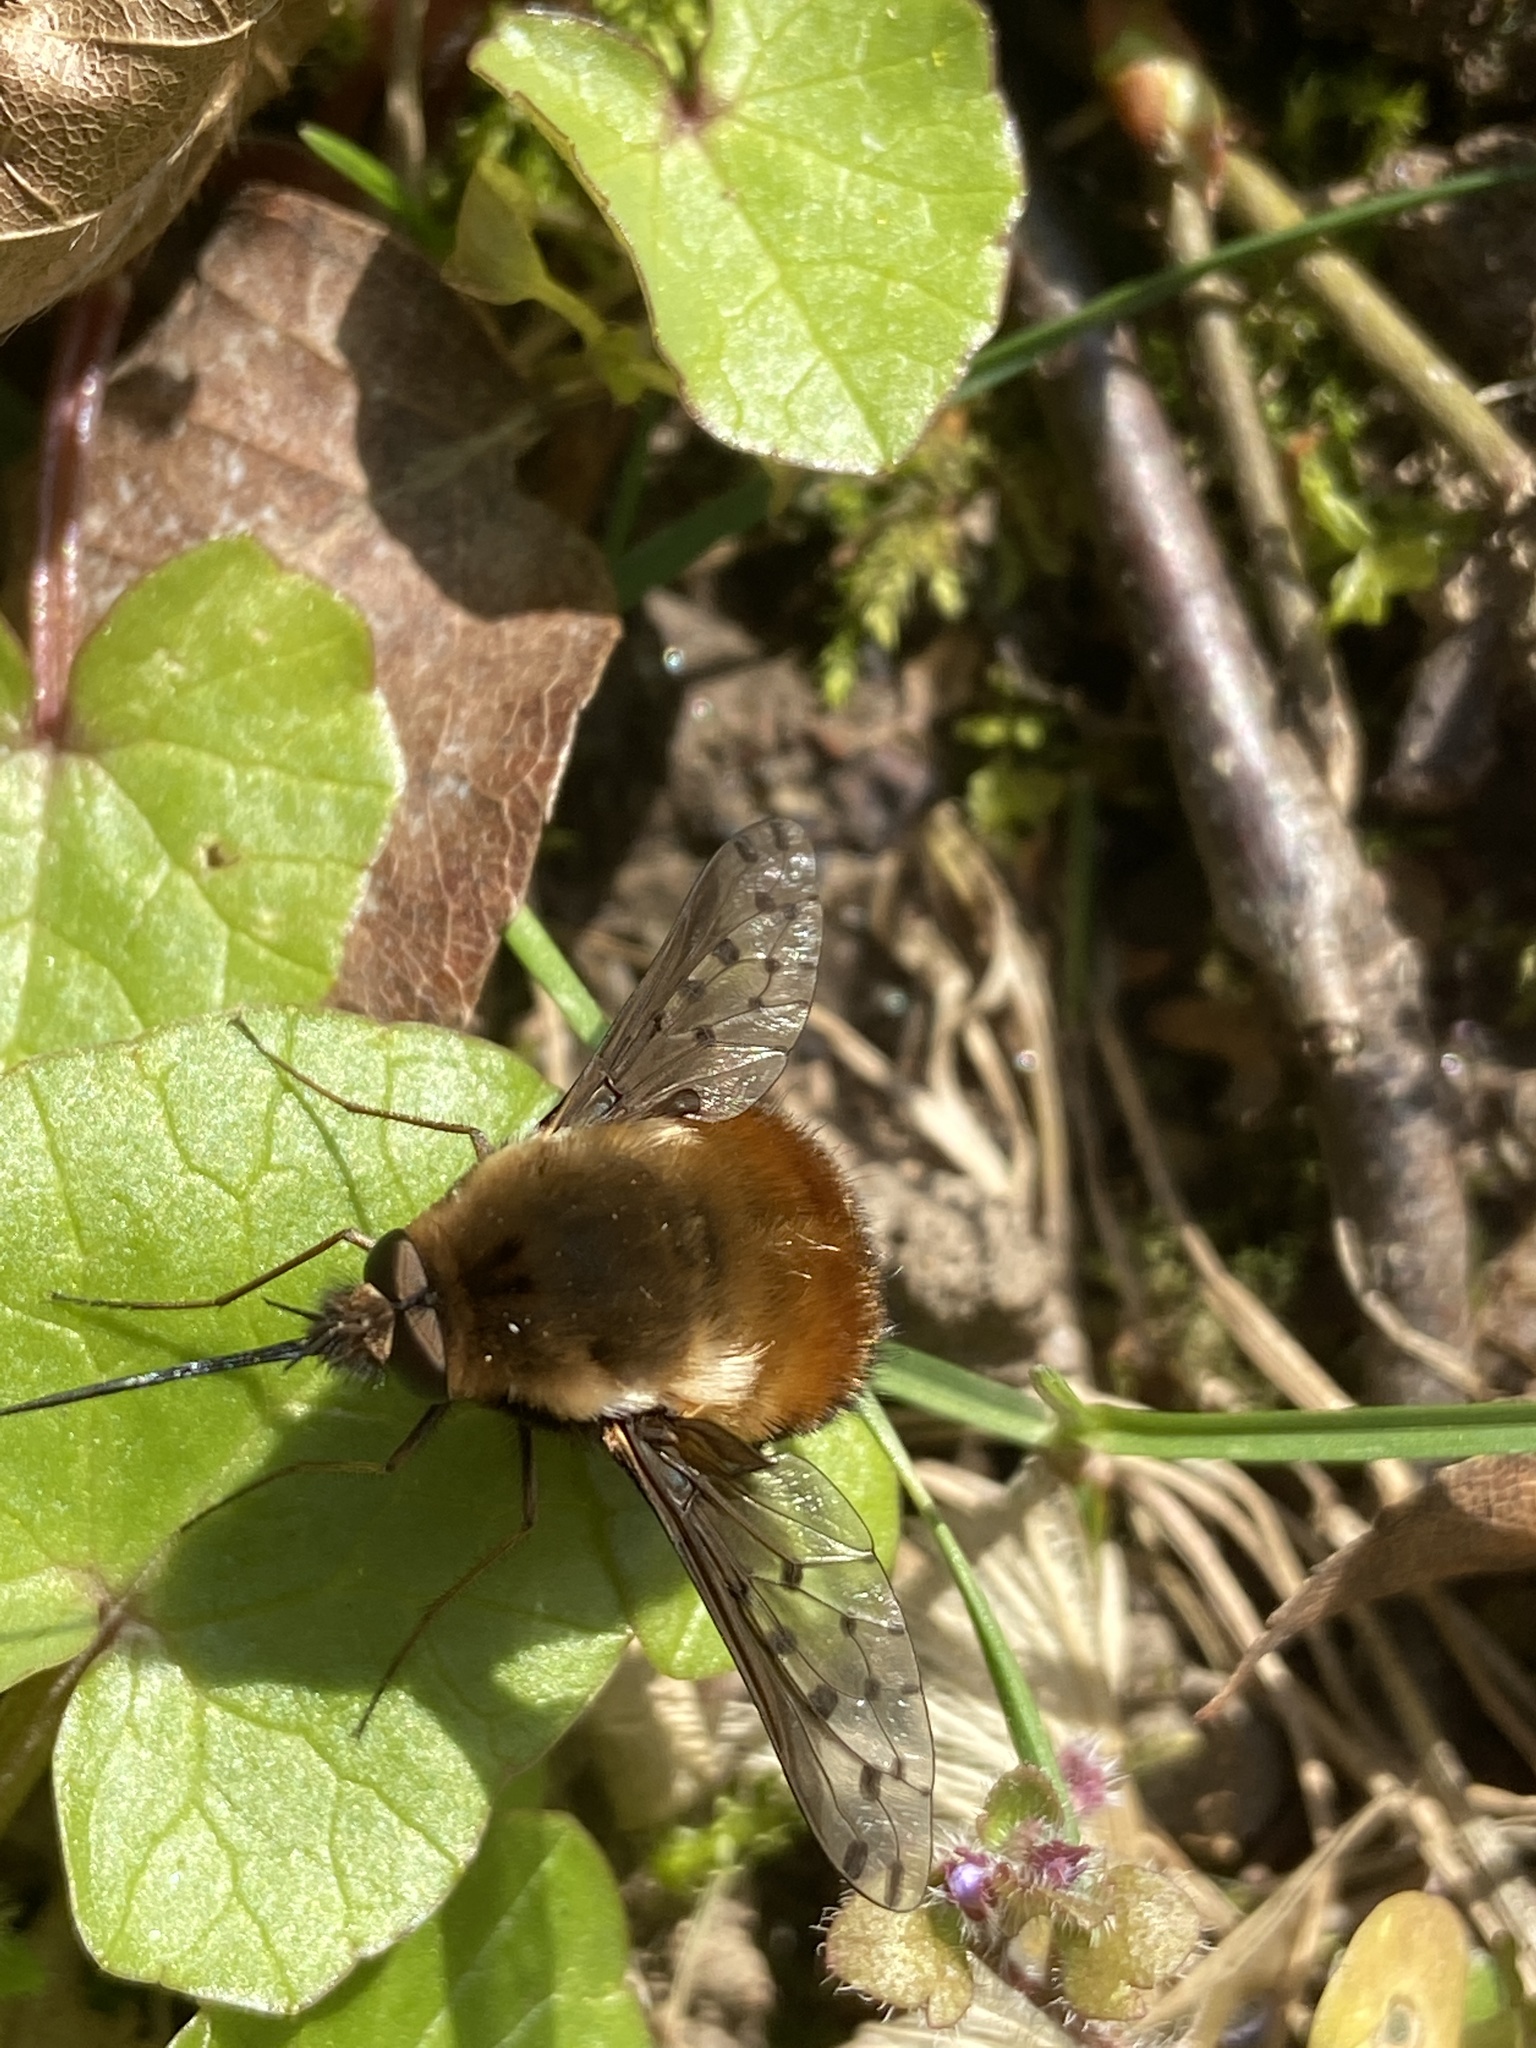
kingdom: Animalia
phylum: Arthropoda
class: Insecta
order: Diptera
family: Bombyliidae
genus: Bombylius
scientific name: Bombylius discolor
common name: Dotted bee-fly
